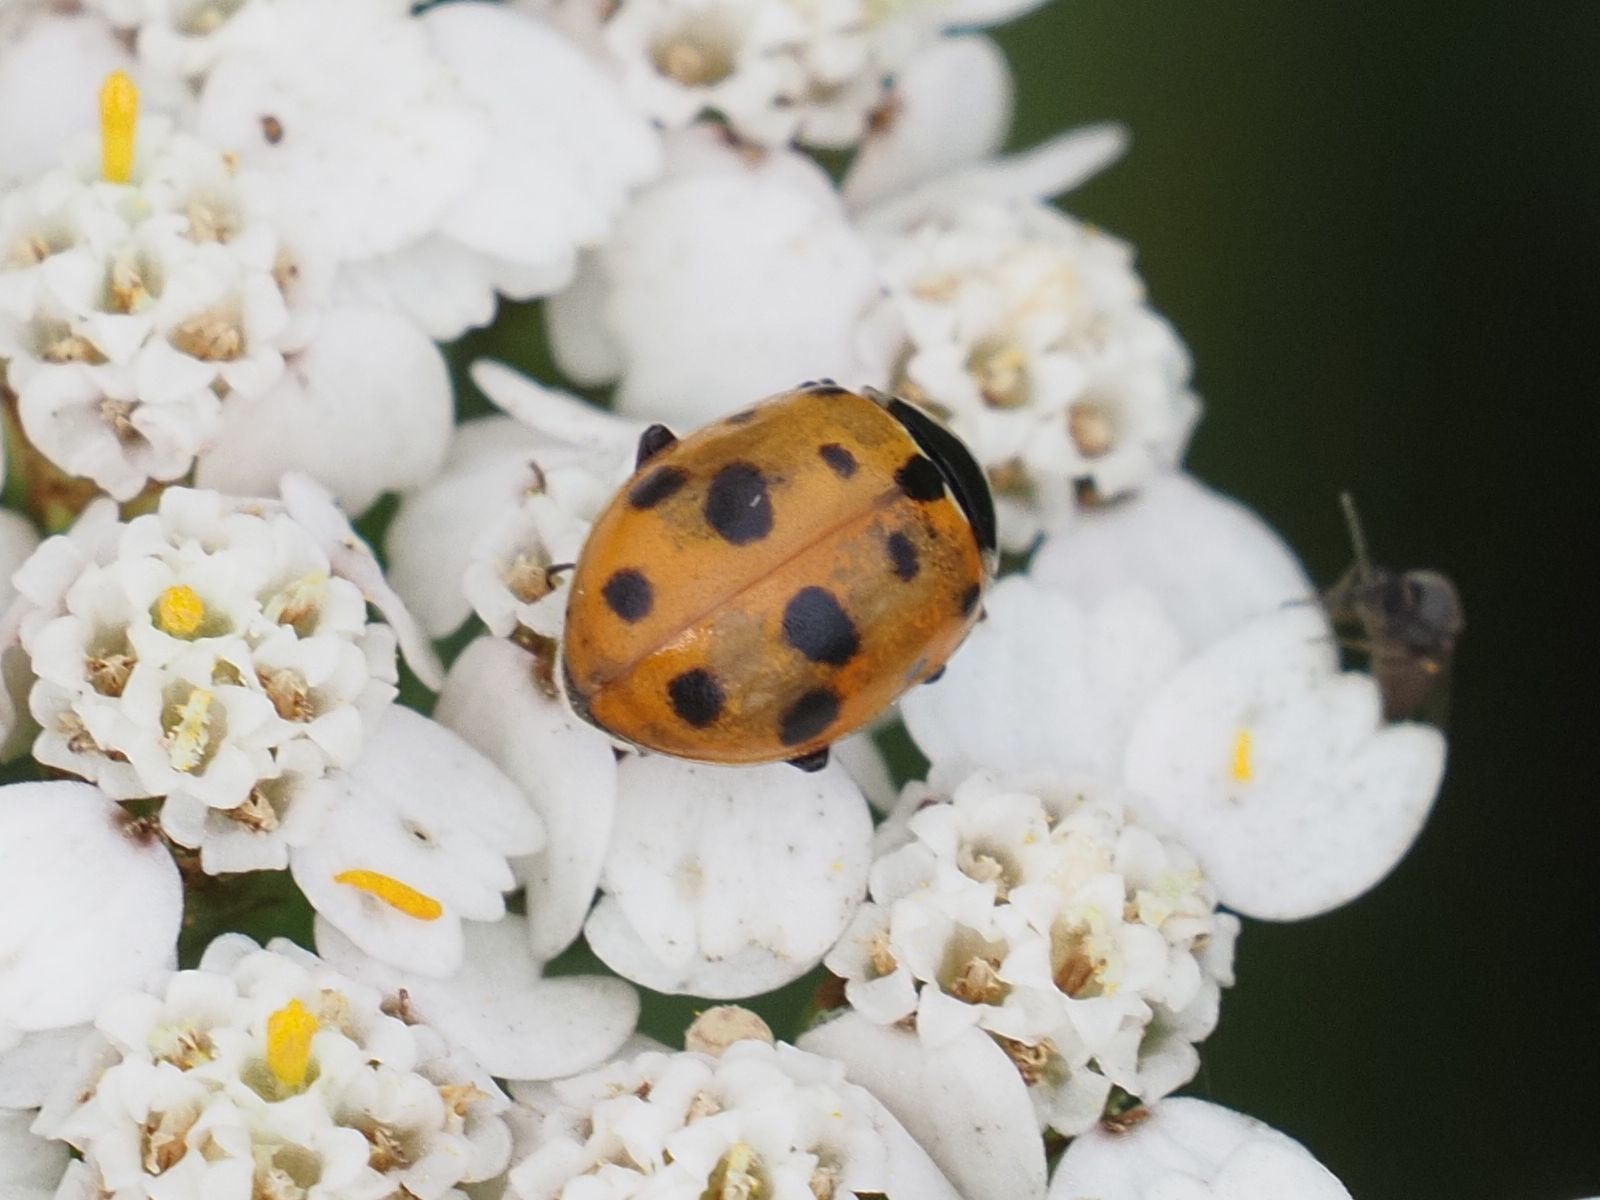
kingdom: Animalia
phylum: Arthropoda
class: Insecta
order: Coleoptera
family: Coccinellidae
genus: Hippodamia
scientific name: Hippodamia variegata
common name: Ladybird beetle
